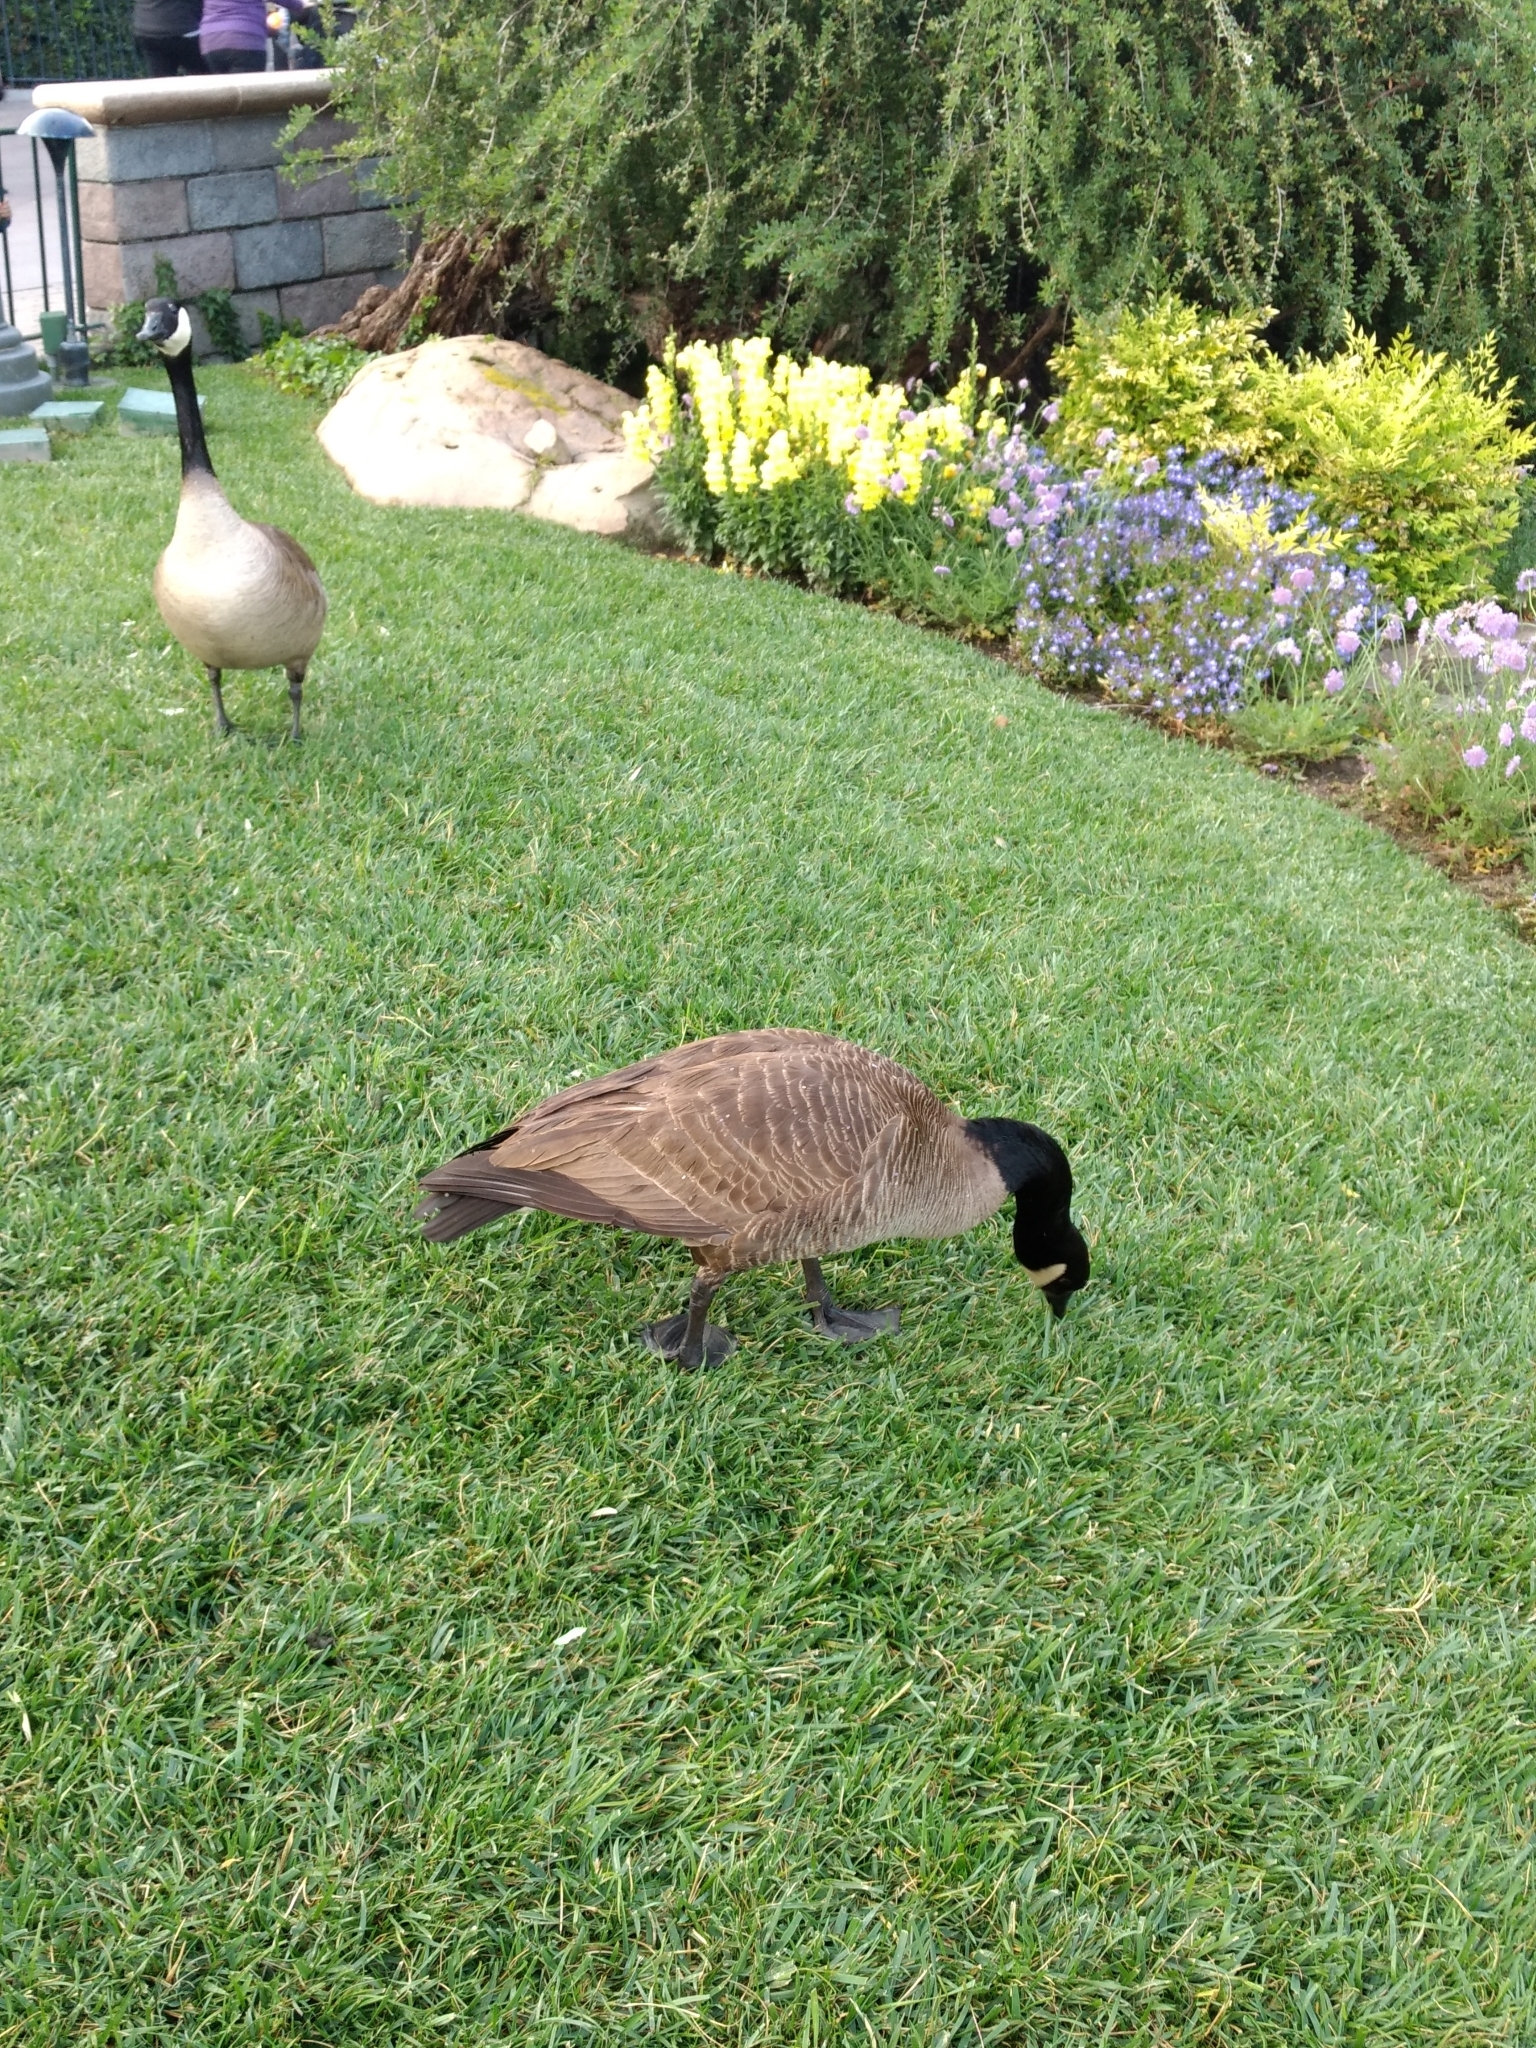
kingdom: Animalia
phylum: Chordata
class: Aves
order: Anseriformes
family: Anatidae
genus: Branta
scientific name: Branta canadensis
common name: Canada goose
